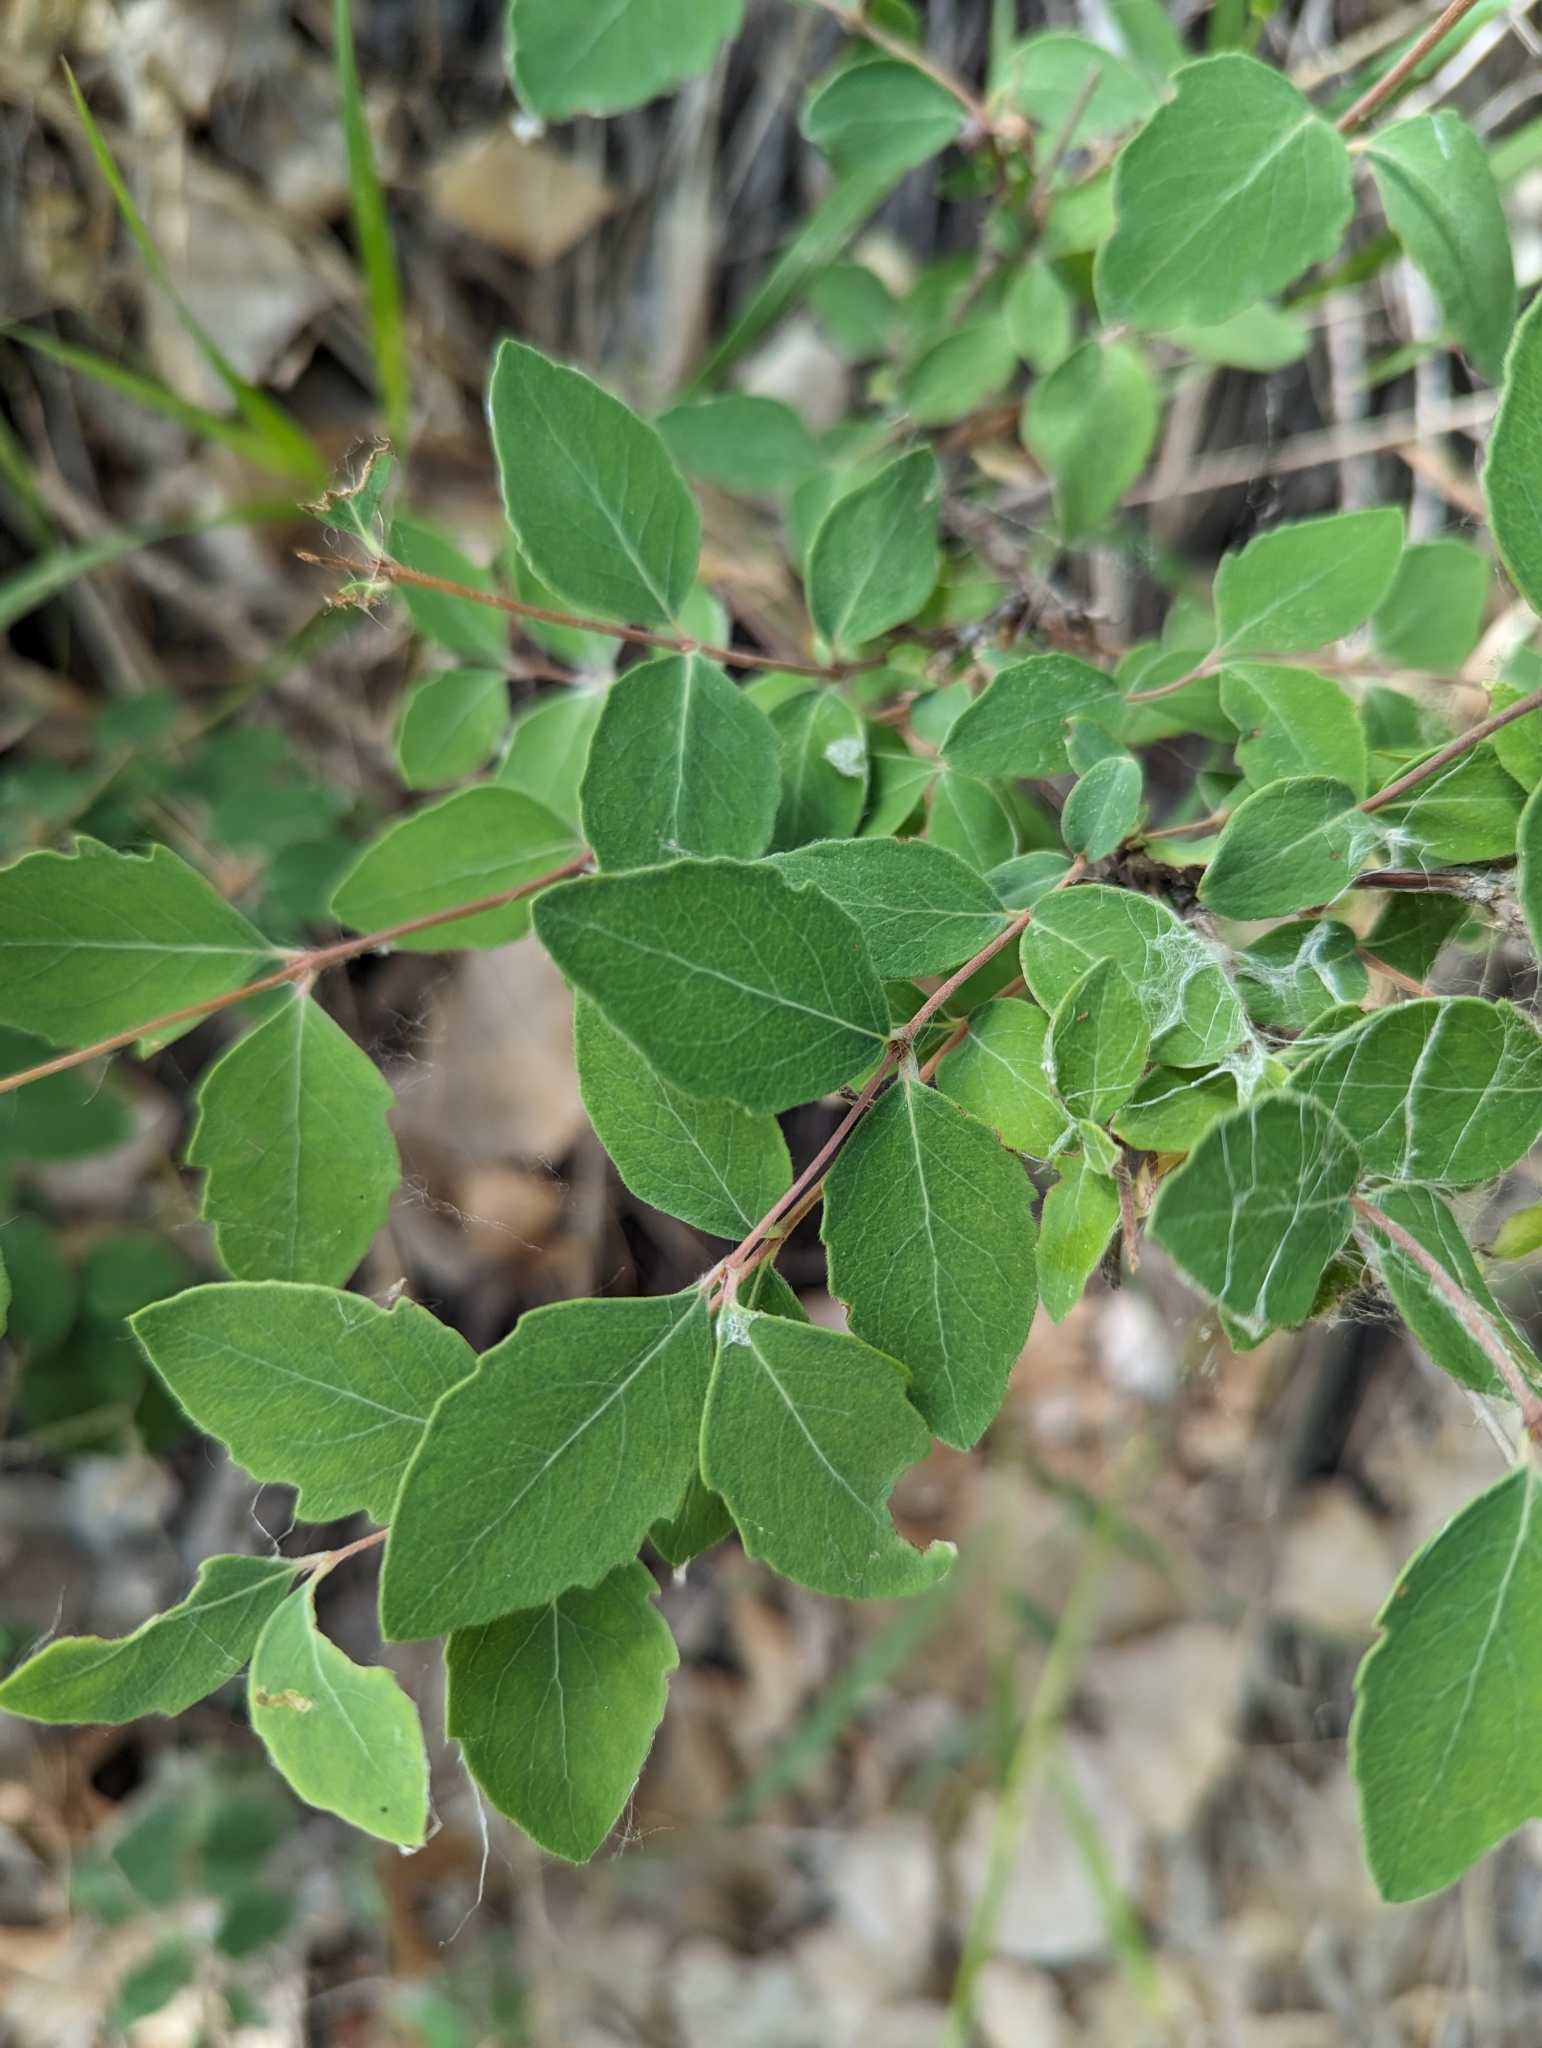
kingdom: Plantae
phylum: Tracheophyta
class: Magnoliopsida
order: Dipsacales
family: Caprifoliaceae
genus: Symphoricarpos
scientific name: Symphoricarpos occidentalis
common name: Wolfberry
